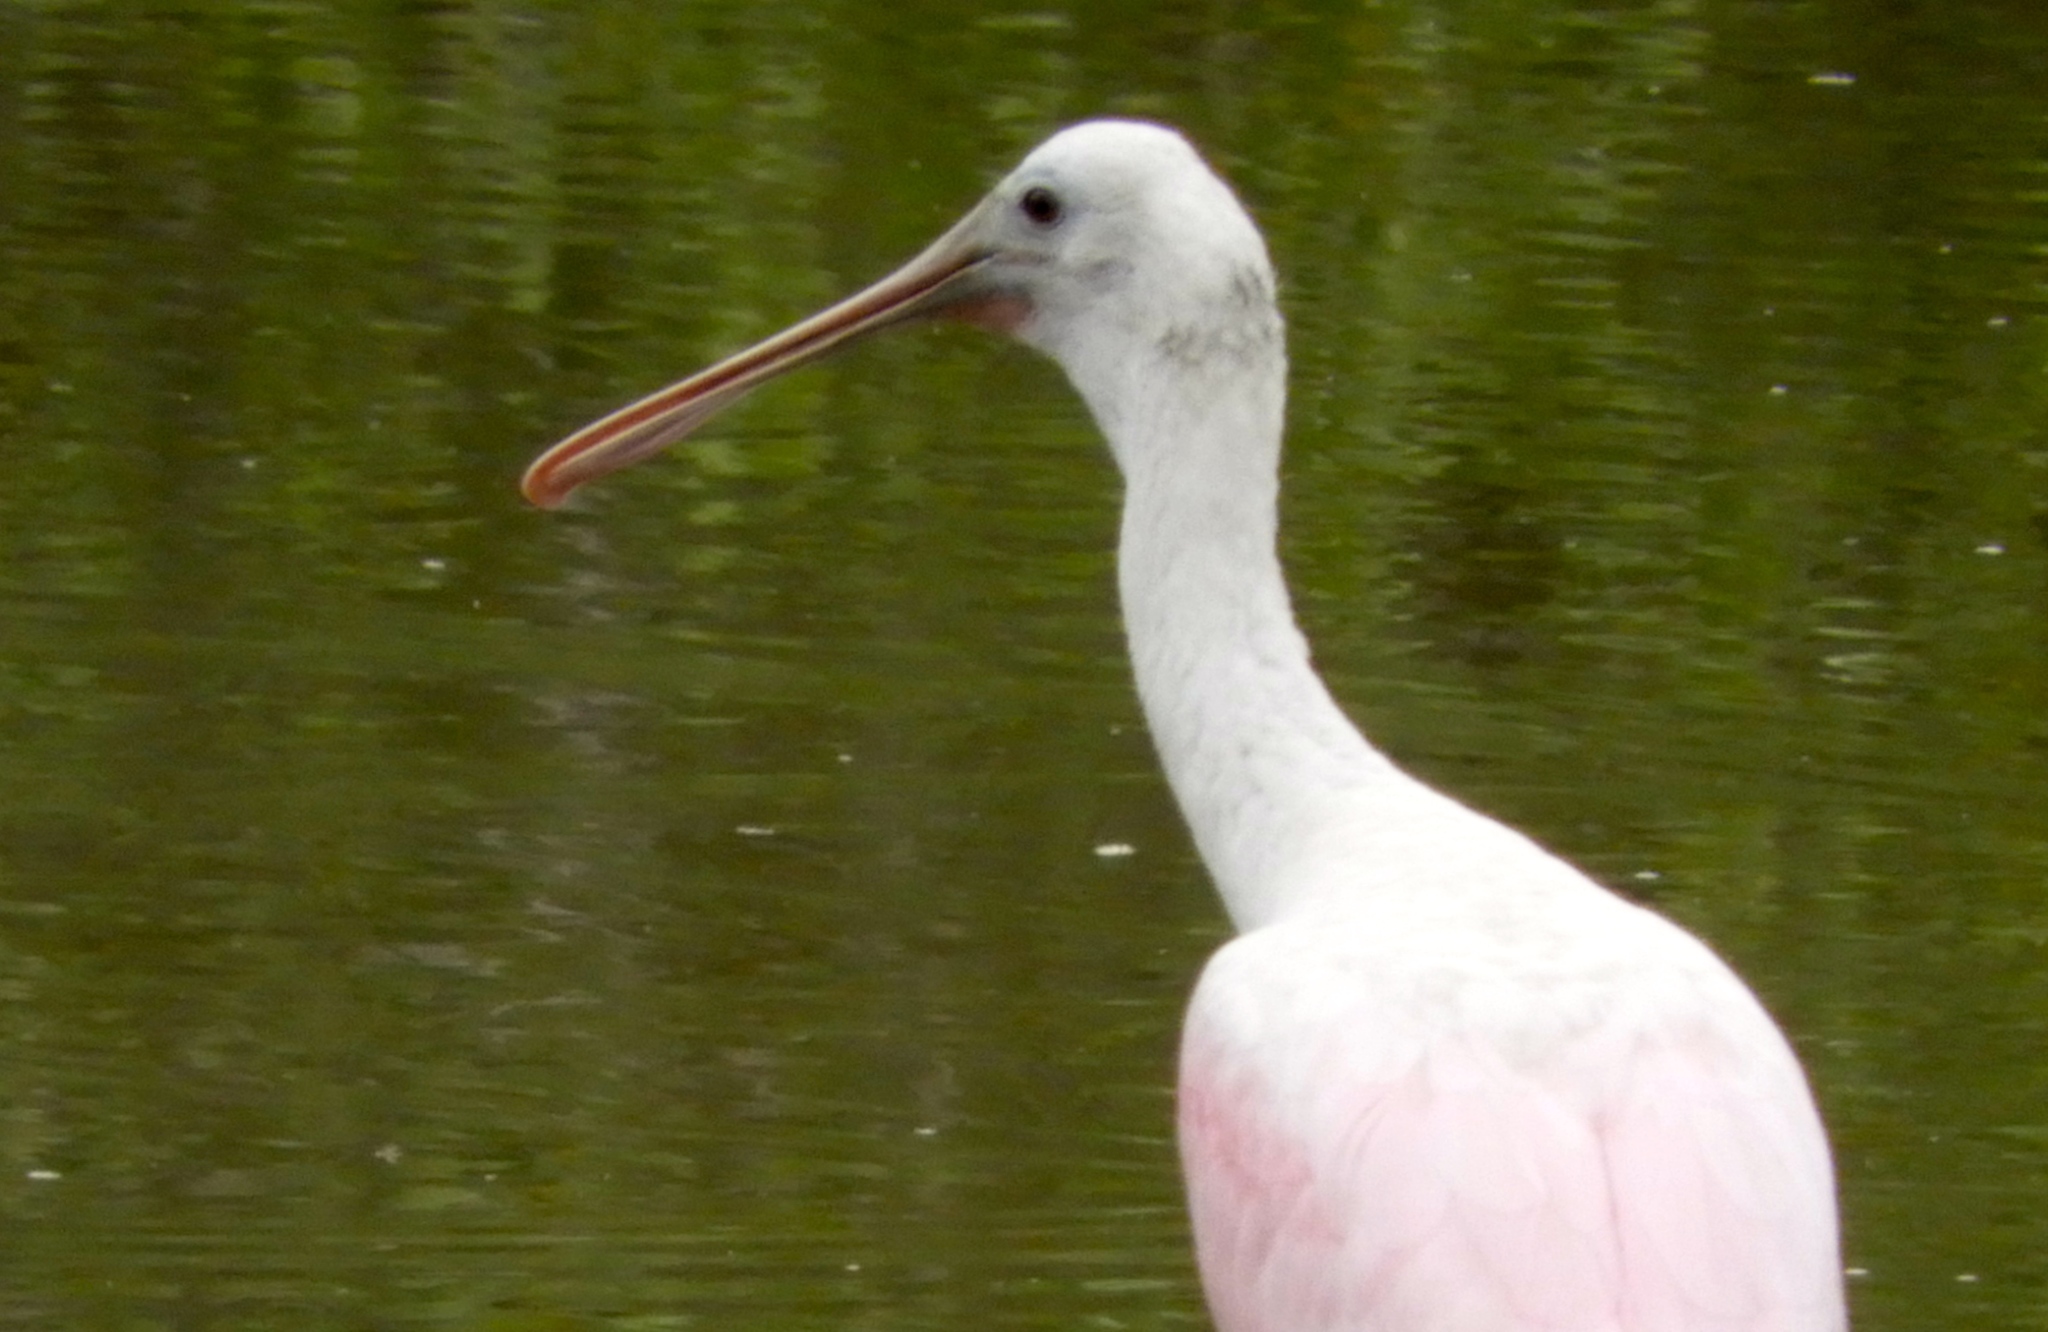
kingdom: Animalia
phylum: Chordata
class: Aves
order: Pelecaniformes
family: Threskiornithidae
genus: Platalea
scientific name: Platalea ajaja
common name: Roseate spoonbill
